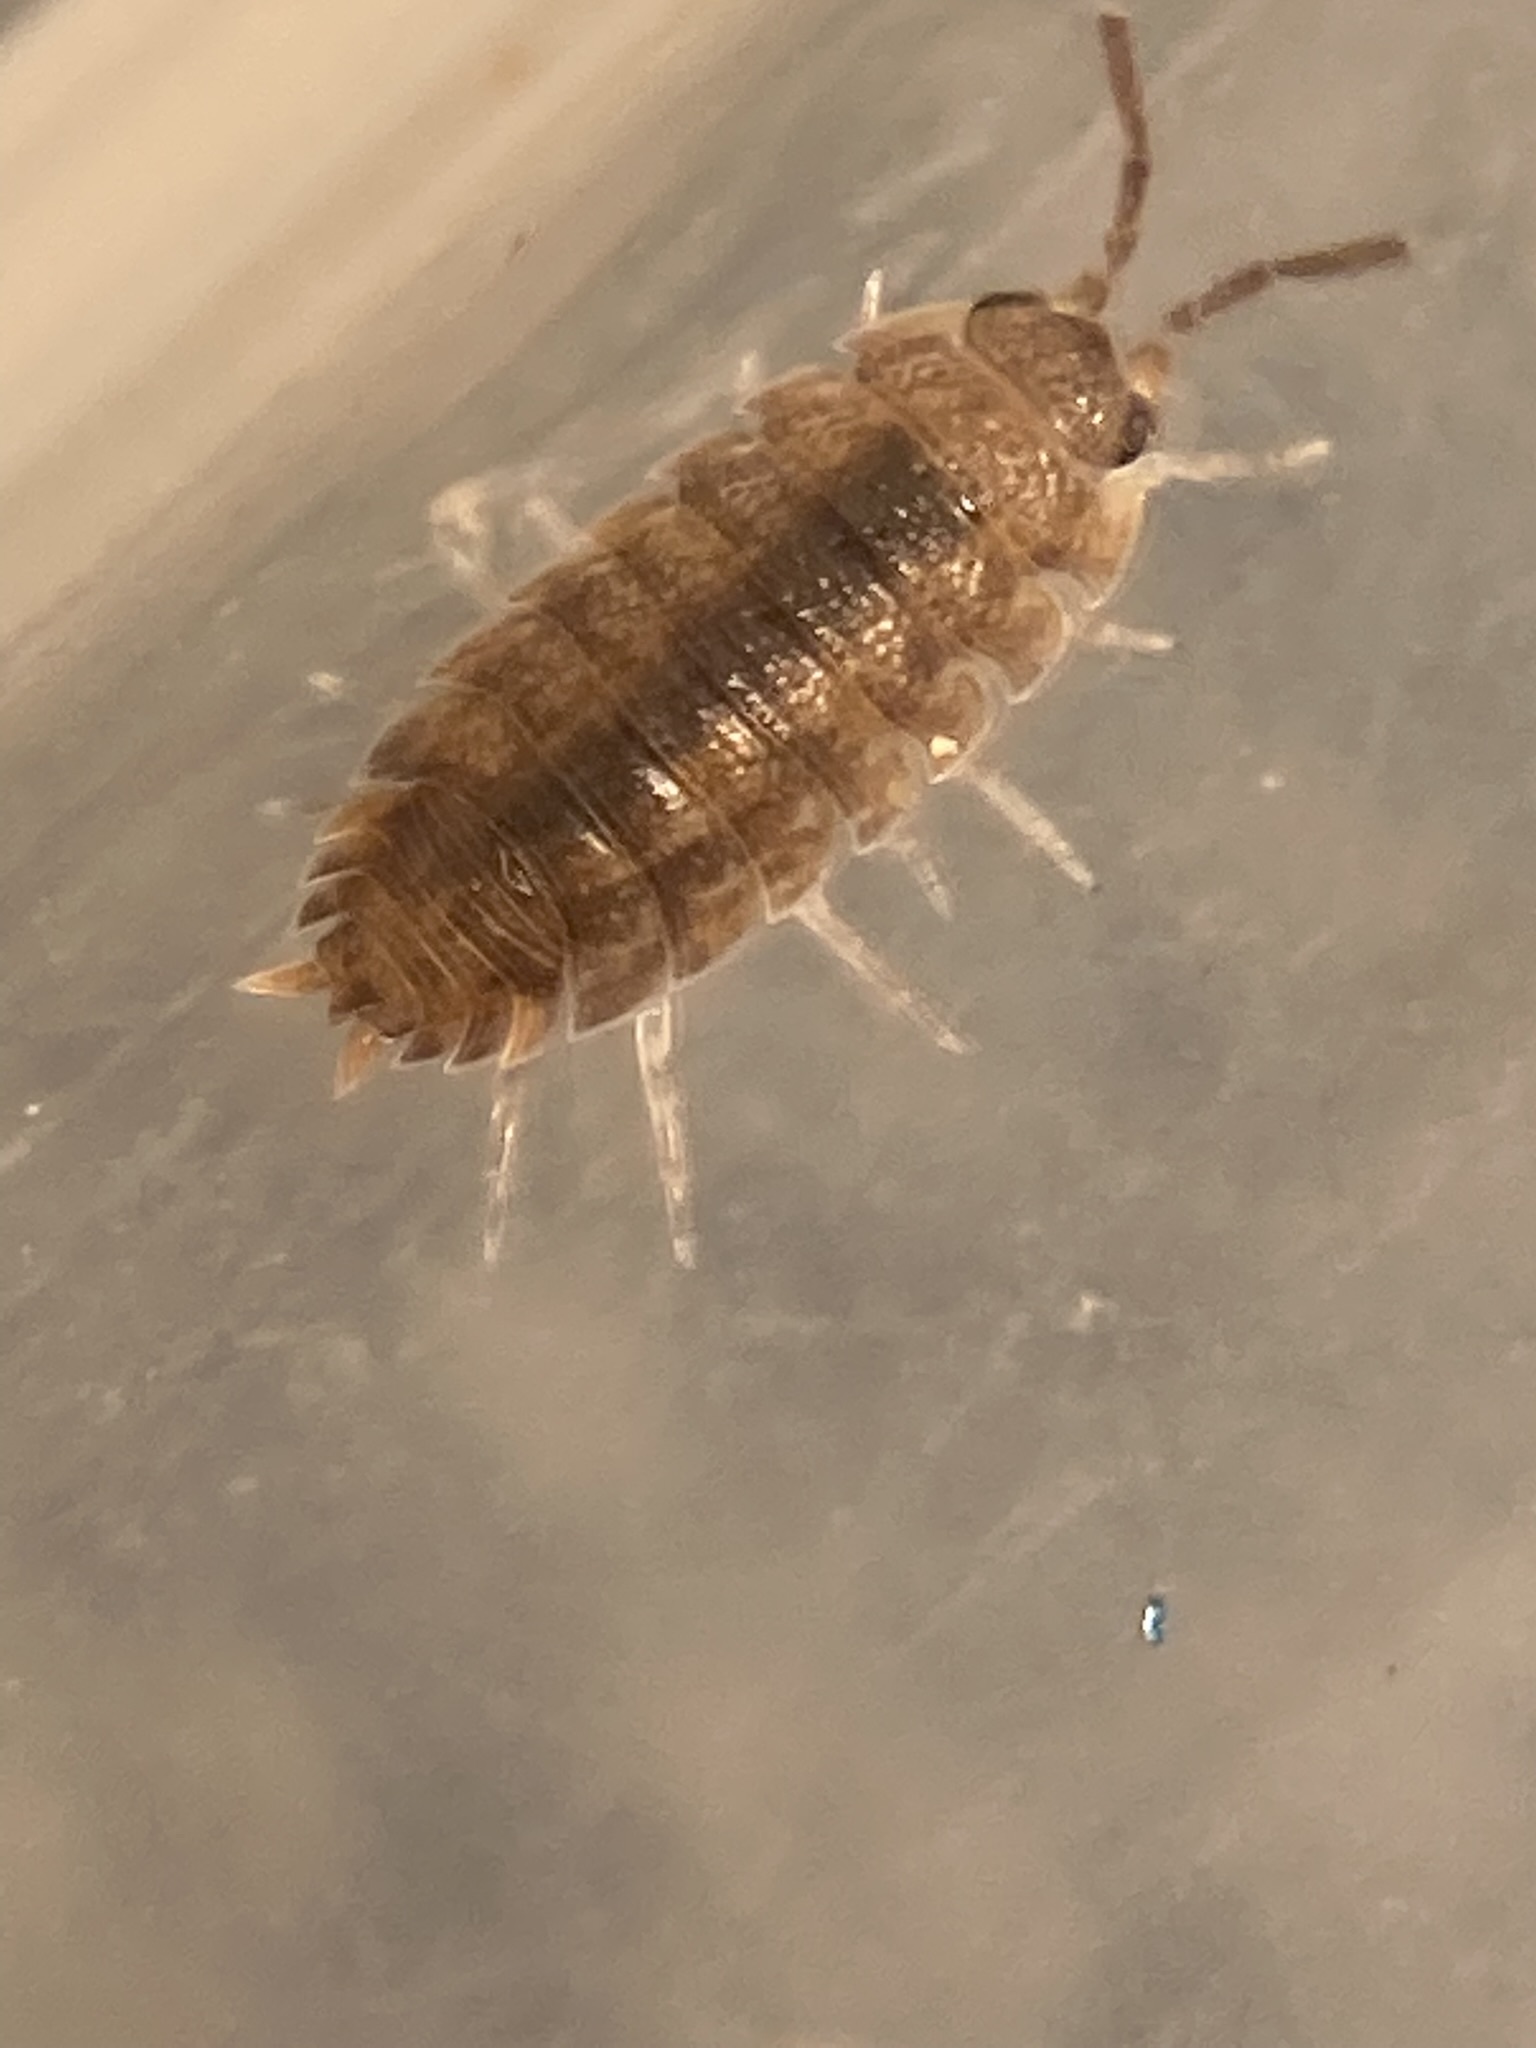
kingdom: Animalia
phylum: Arthropoda
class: Malacostraca
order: Isopoda
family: Porcellionidae
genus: Porcellio
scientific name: Porcellio scaber
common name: Common rough woodlouse
